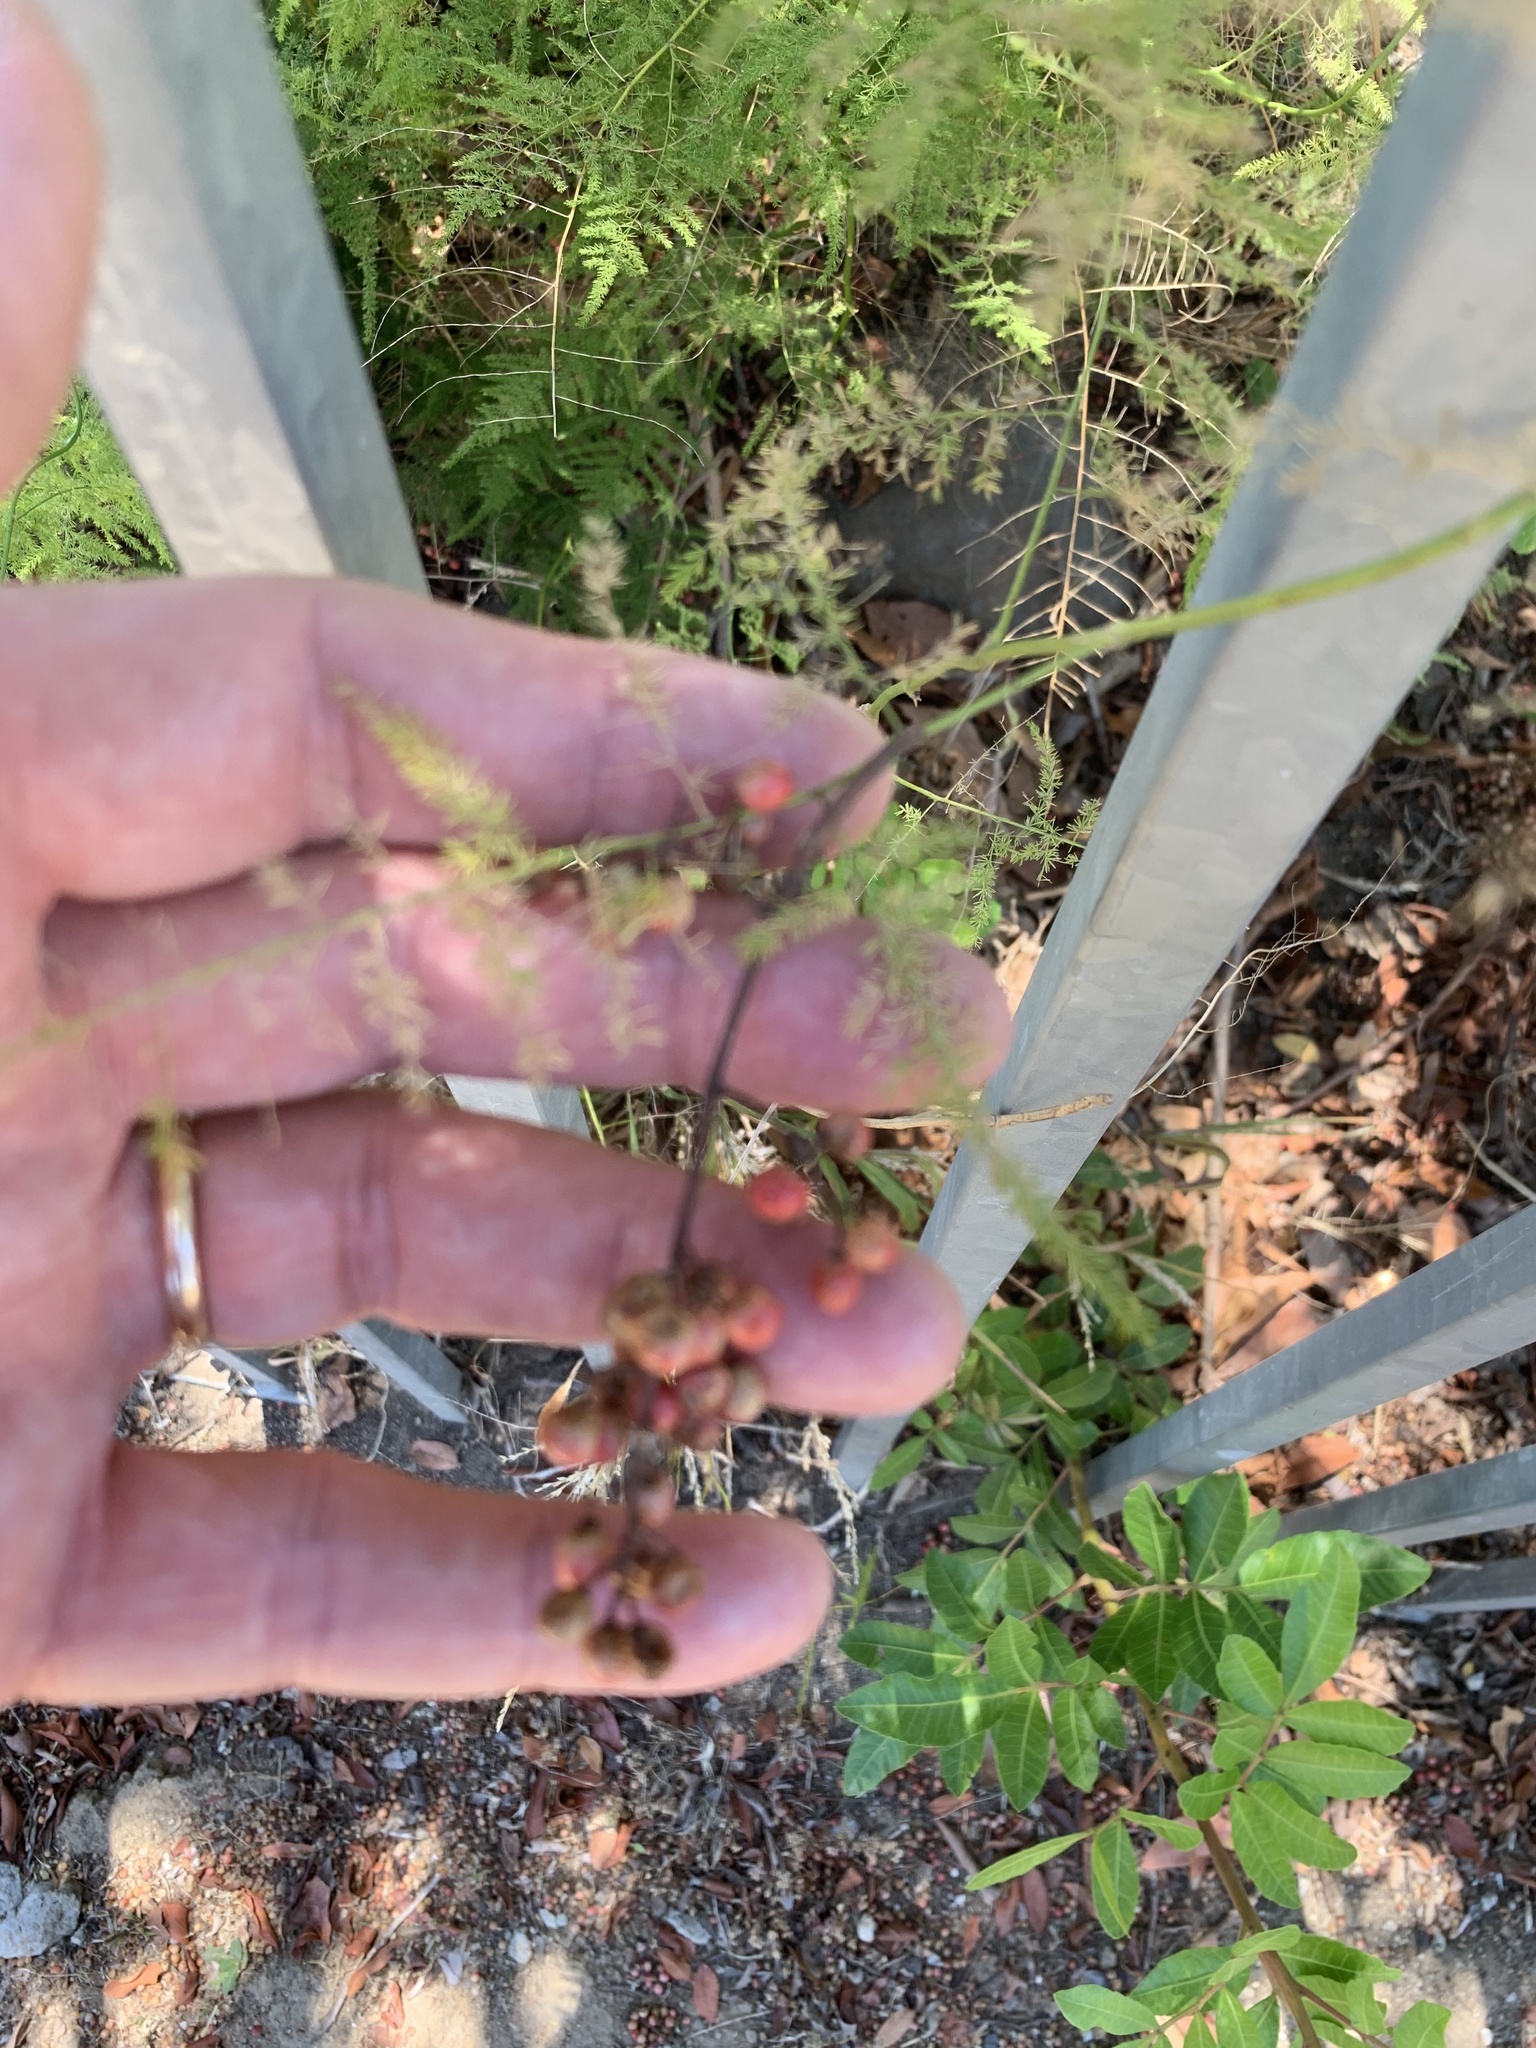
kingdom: Plantae
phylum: Tracheophyta
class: Liliopsida
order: Asparagales
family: Asparagaceae
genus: Asparagus
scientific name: Asparagus setaceus
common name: Common asparagus fern
